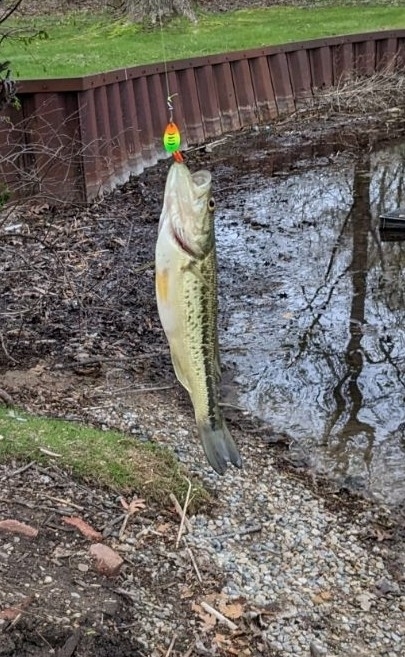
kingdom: Animalia
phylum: Chordata
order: Perciformes
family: Centrarchidae
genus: Micropterus
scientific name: Micropterus
